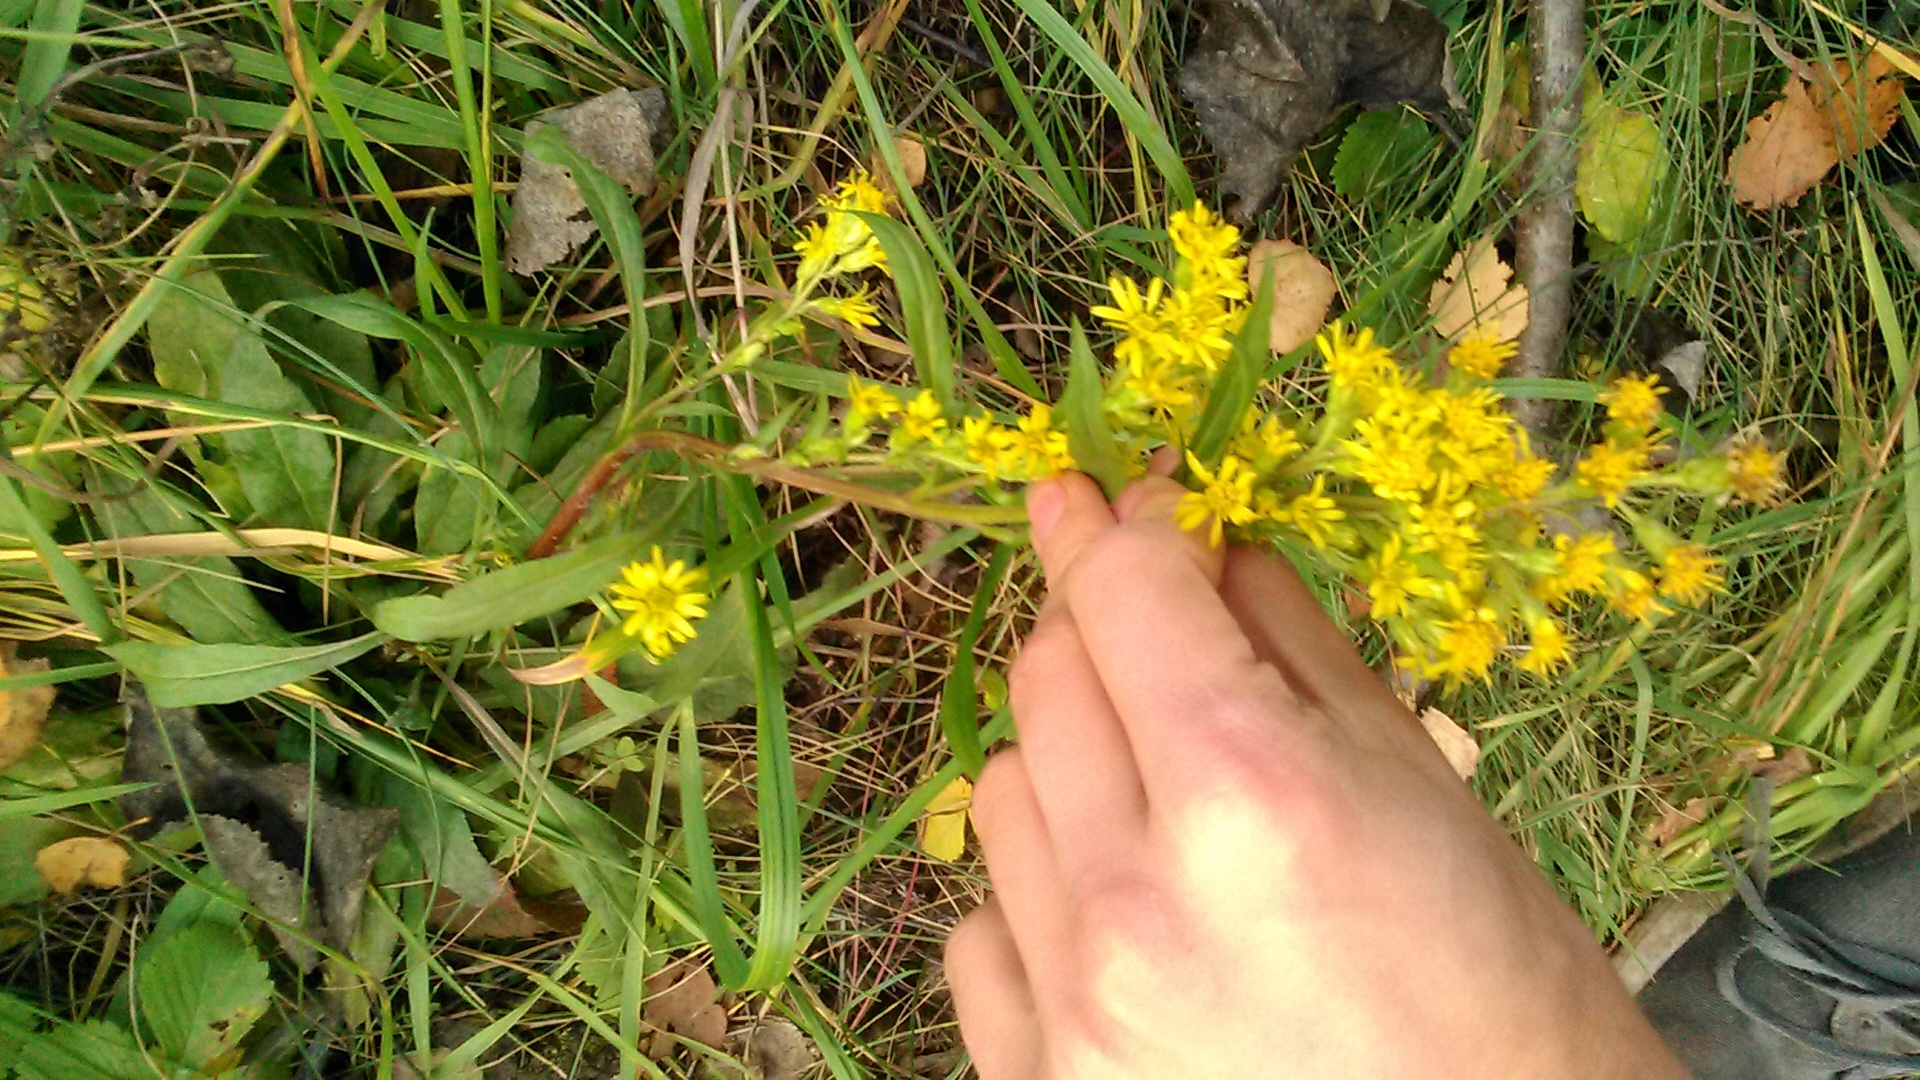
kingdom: Plantae
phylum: Tracheophyta
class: Magnoliopsida
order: Asterales
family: Asteraceae
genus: Solidago
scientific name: Solidago virgaurea
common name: Goldenrod
